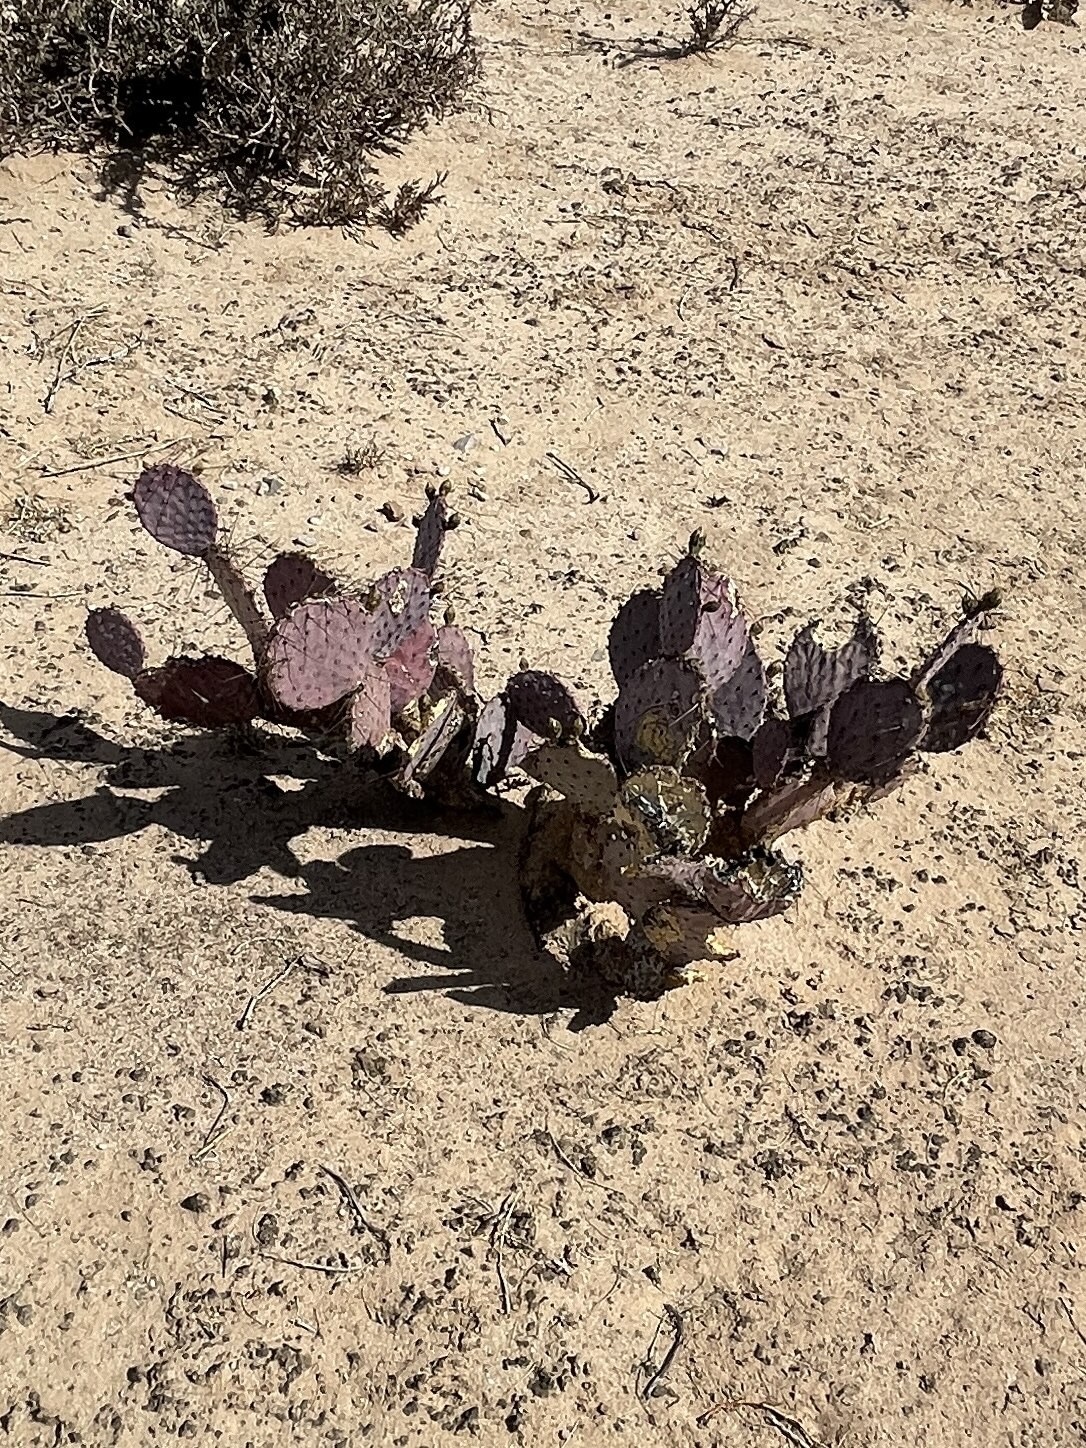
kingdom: Plantae
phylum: Tracheophyta
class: Magnoliopsida
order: Caryophyllales
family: Cactaceae
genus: Opuntia
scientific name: Opuntia macrocentra
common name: Purple prickly-pear
